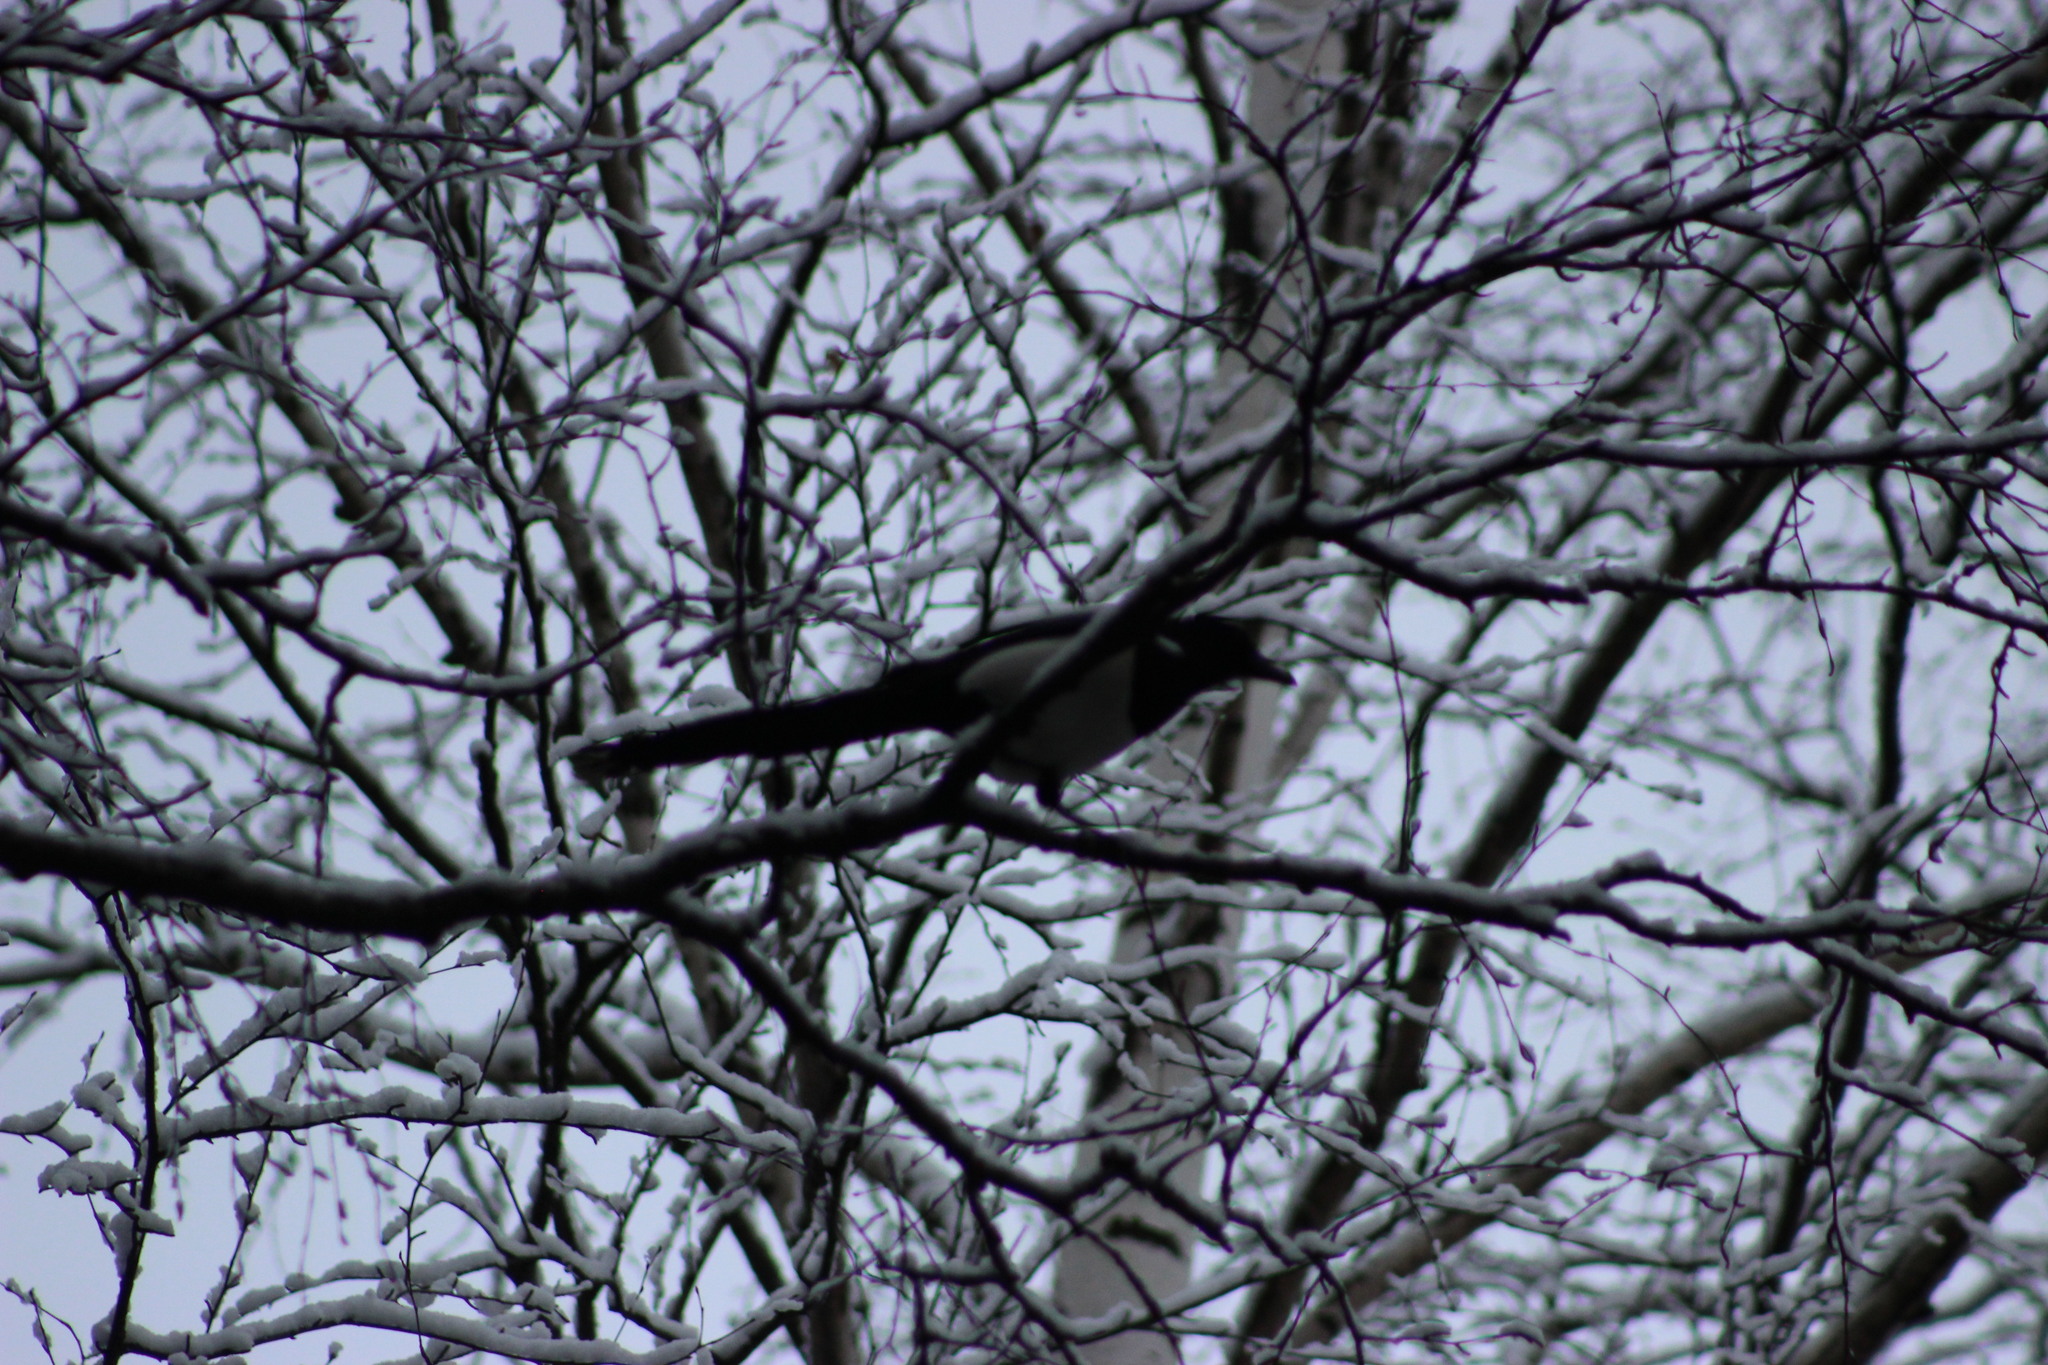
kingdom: Animalia
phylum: Chordata
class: Aves
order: Passeriformes
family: Corvidae
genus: Pica
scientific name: Pica pica
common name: Eurasian magpie
